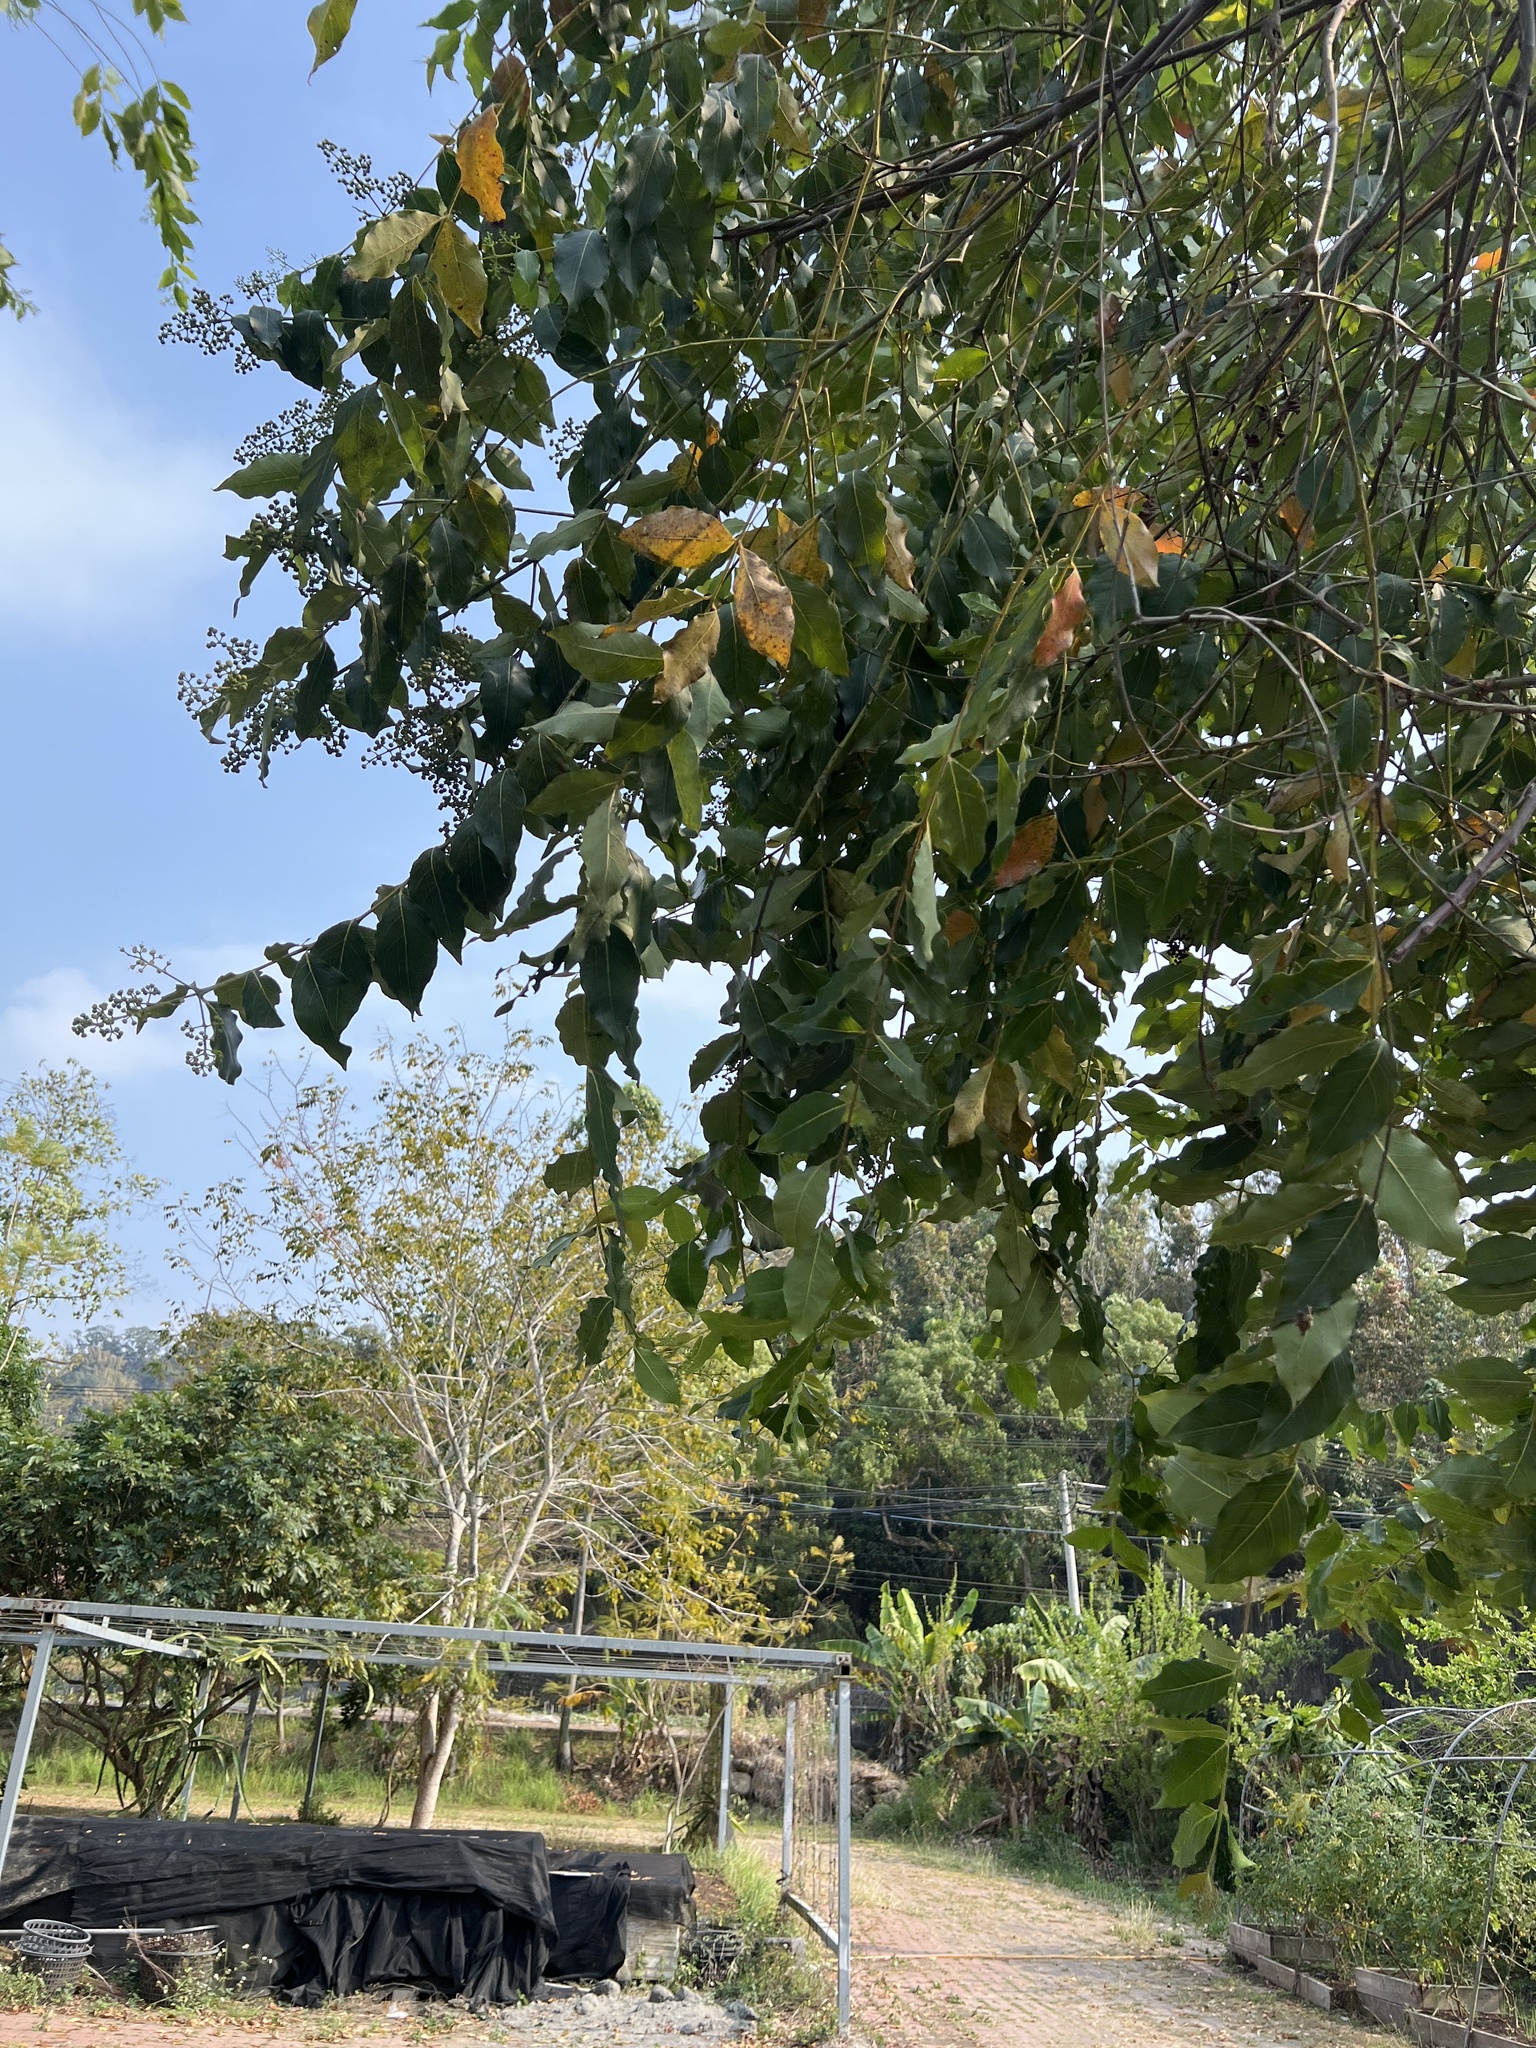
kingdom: Plantae
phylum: Tracheophyta
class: Magnoliopsida
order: Myrtales
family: Lythraceae
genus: Lagerstroemia
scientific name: Lagerstroemia subcostata
